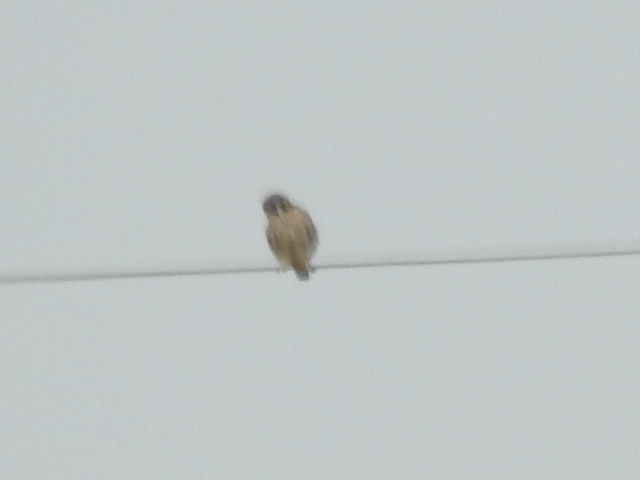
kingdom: Animalia
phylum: Chordata
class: Aves
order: Falconiformes
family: Falconidae
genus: Falco
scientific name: Falco sparverius
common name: American kestrel
